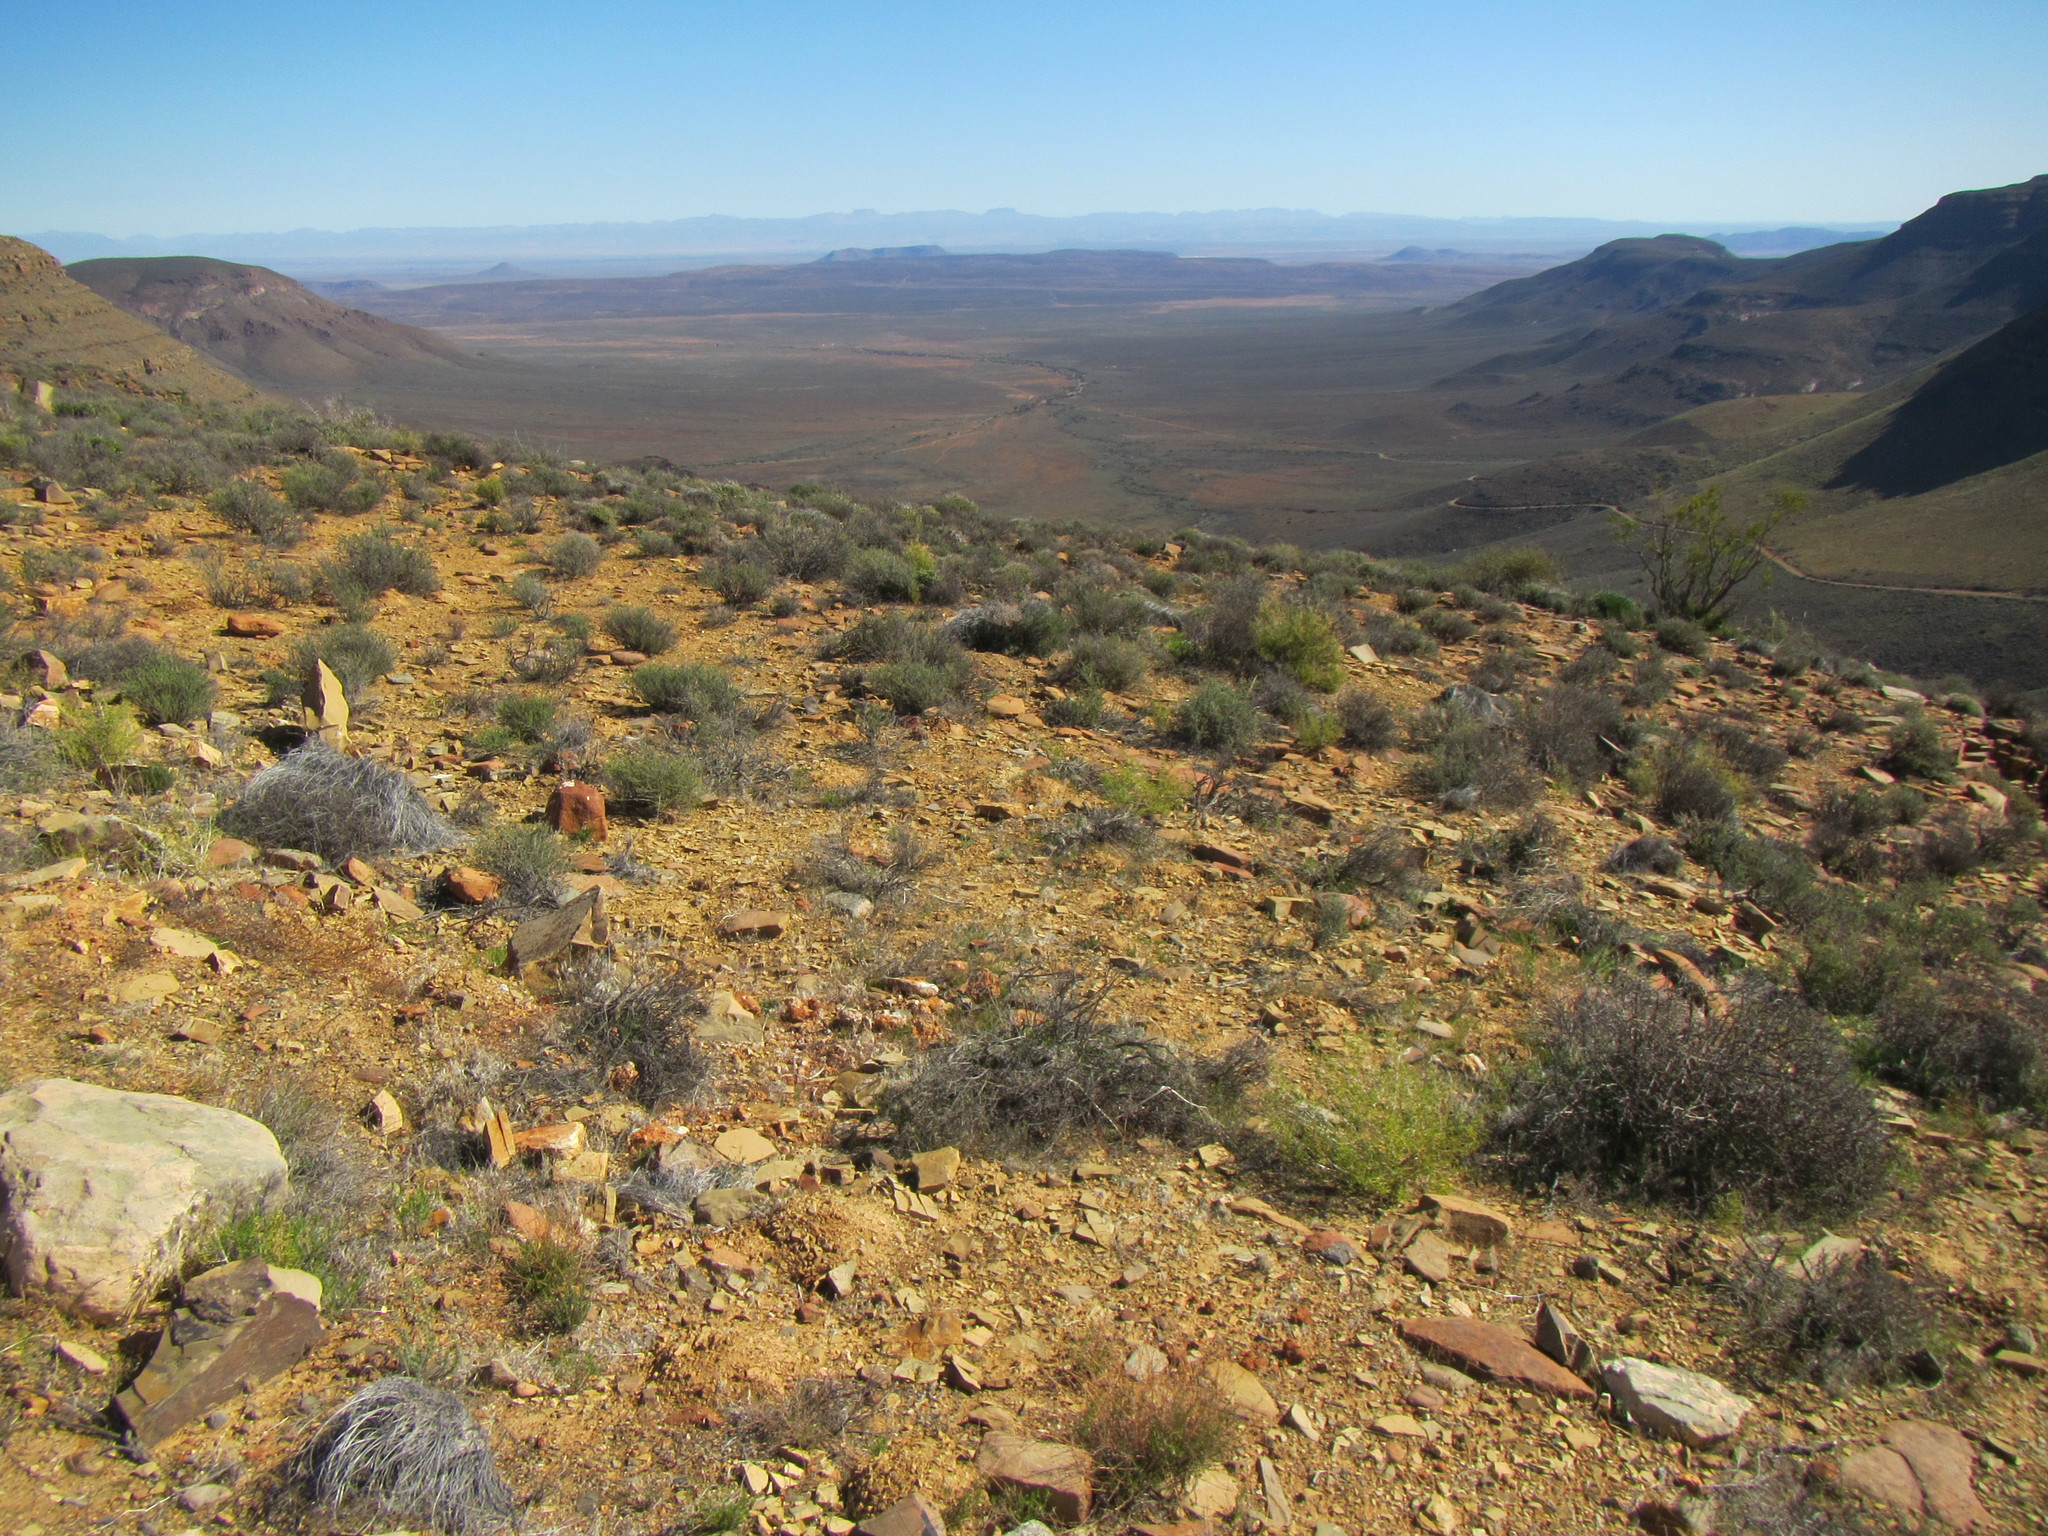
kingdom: Plantae
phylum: Tracheophyta
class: Magnoliopsida
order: Caryophyllales
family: Aizoaceae
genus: Trichodiadema
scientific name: Trichodiadema pomeridianum
